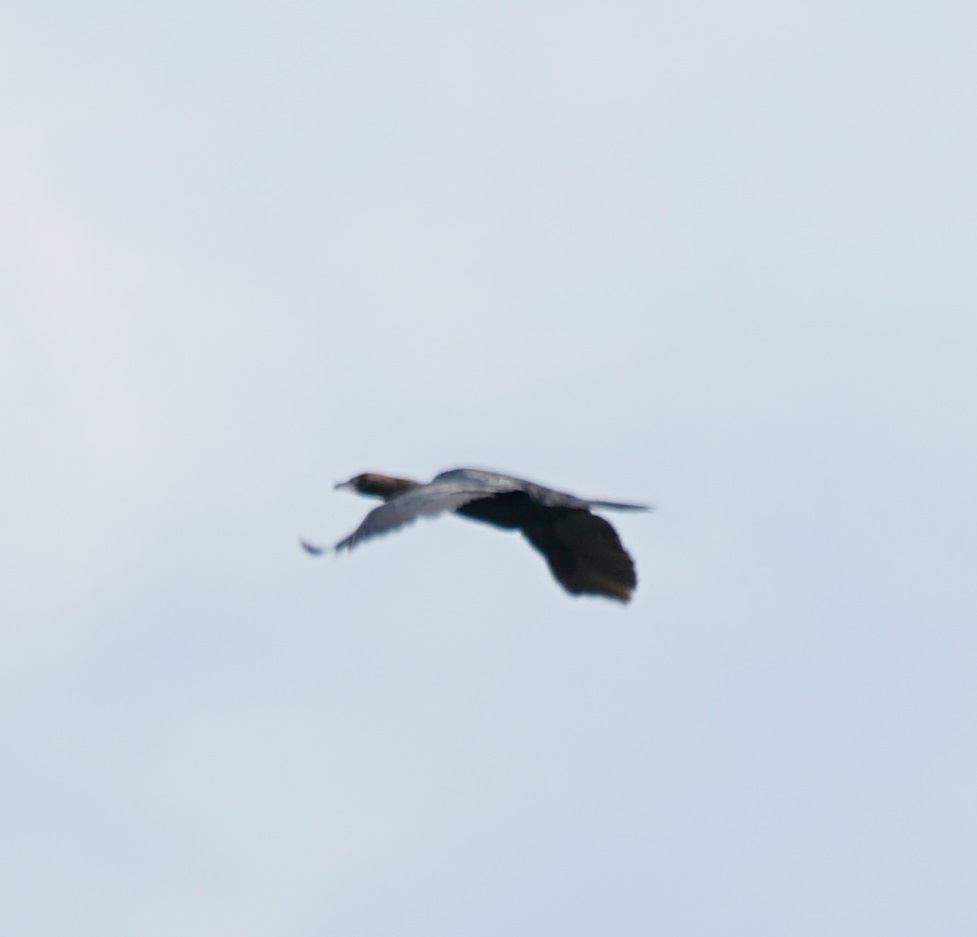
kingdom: Animalia
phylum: Chordata
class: Aves
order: Suliformes
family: Phalacrocoracidae
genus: Microcarbo
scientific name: Microcarbo pygmaeus
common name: Pygmy cormorant
